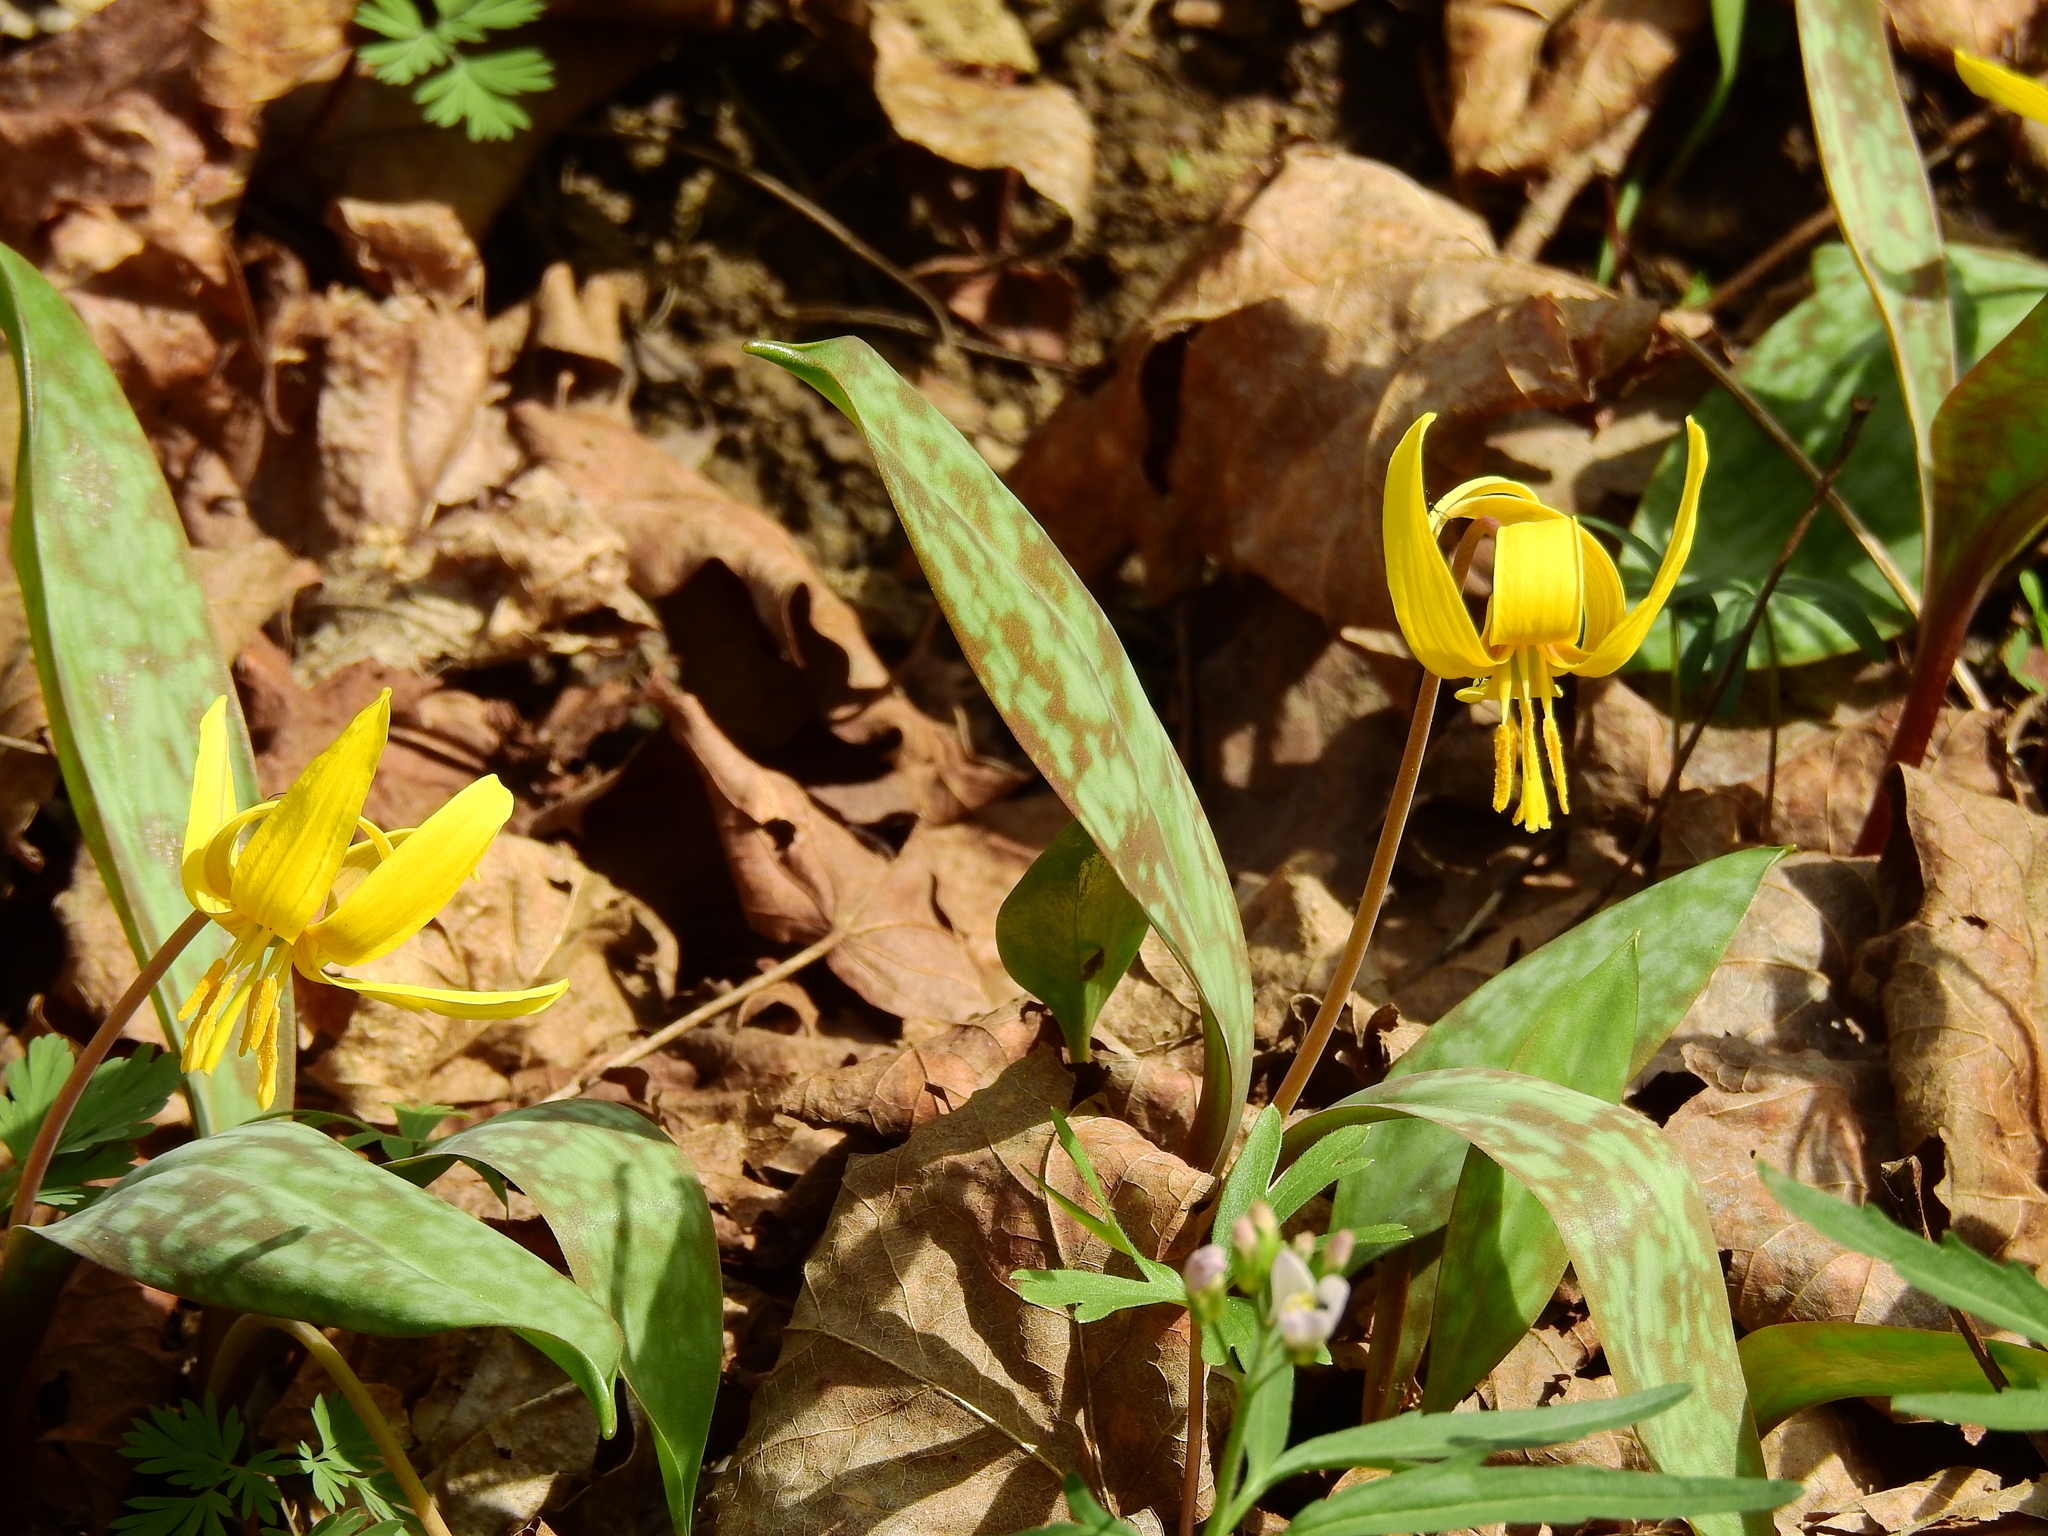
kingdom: Plantae
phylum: Tracheophyta
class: Liliopsida
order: Liliales
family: Liliaceae
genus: Erythronium
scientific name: Erythronium americanum
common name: Yellow adder's-tongue
